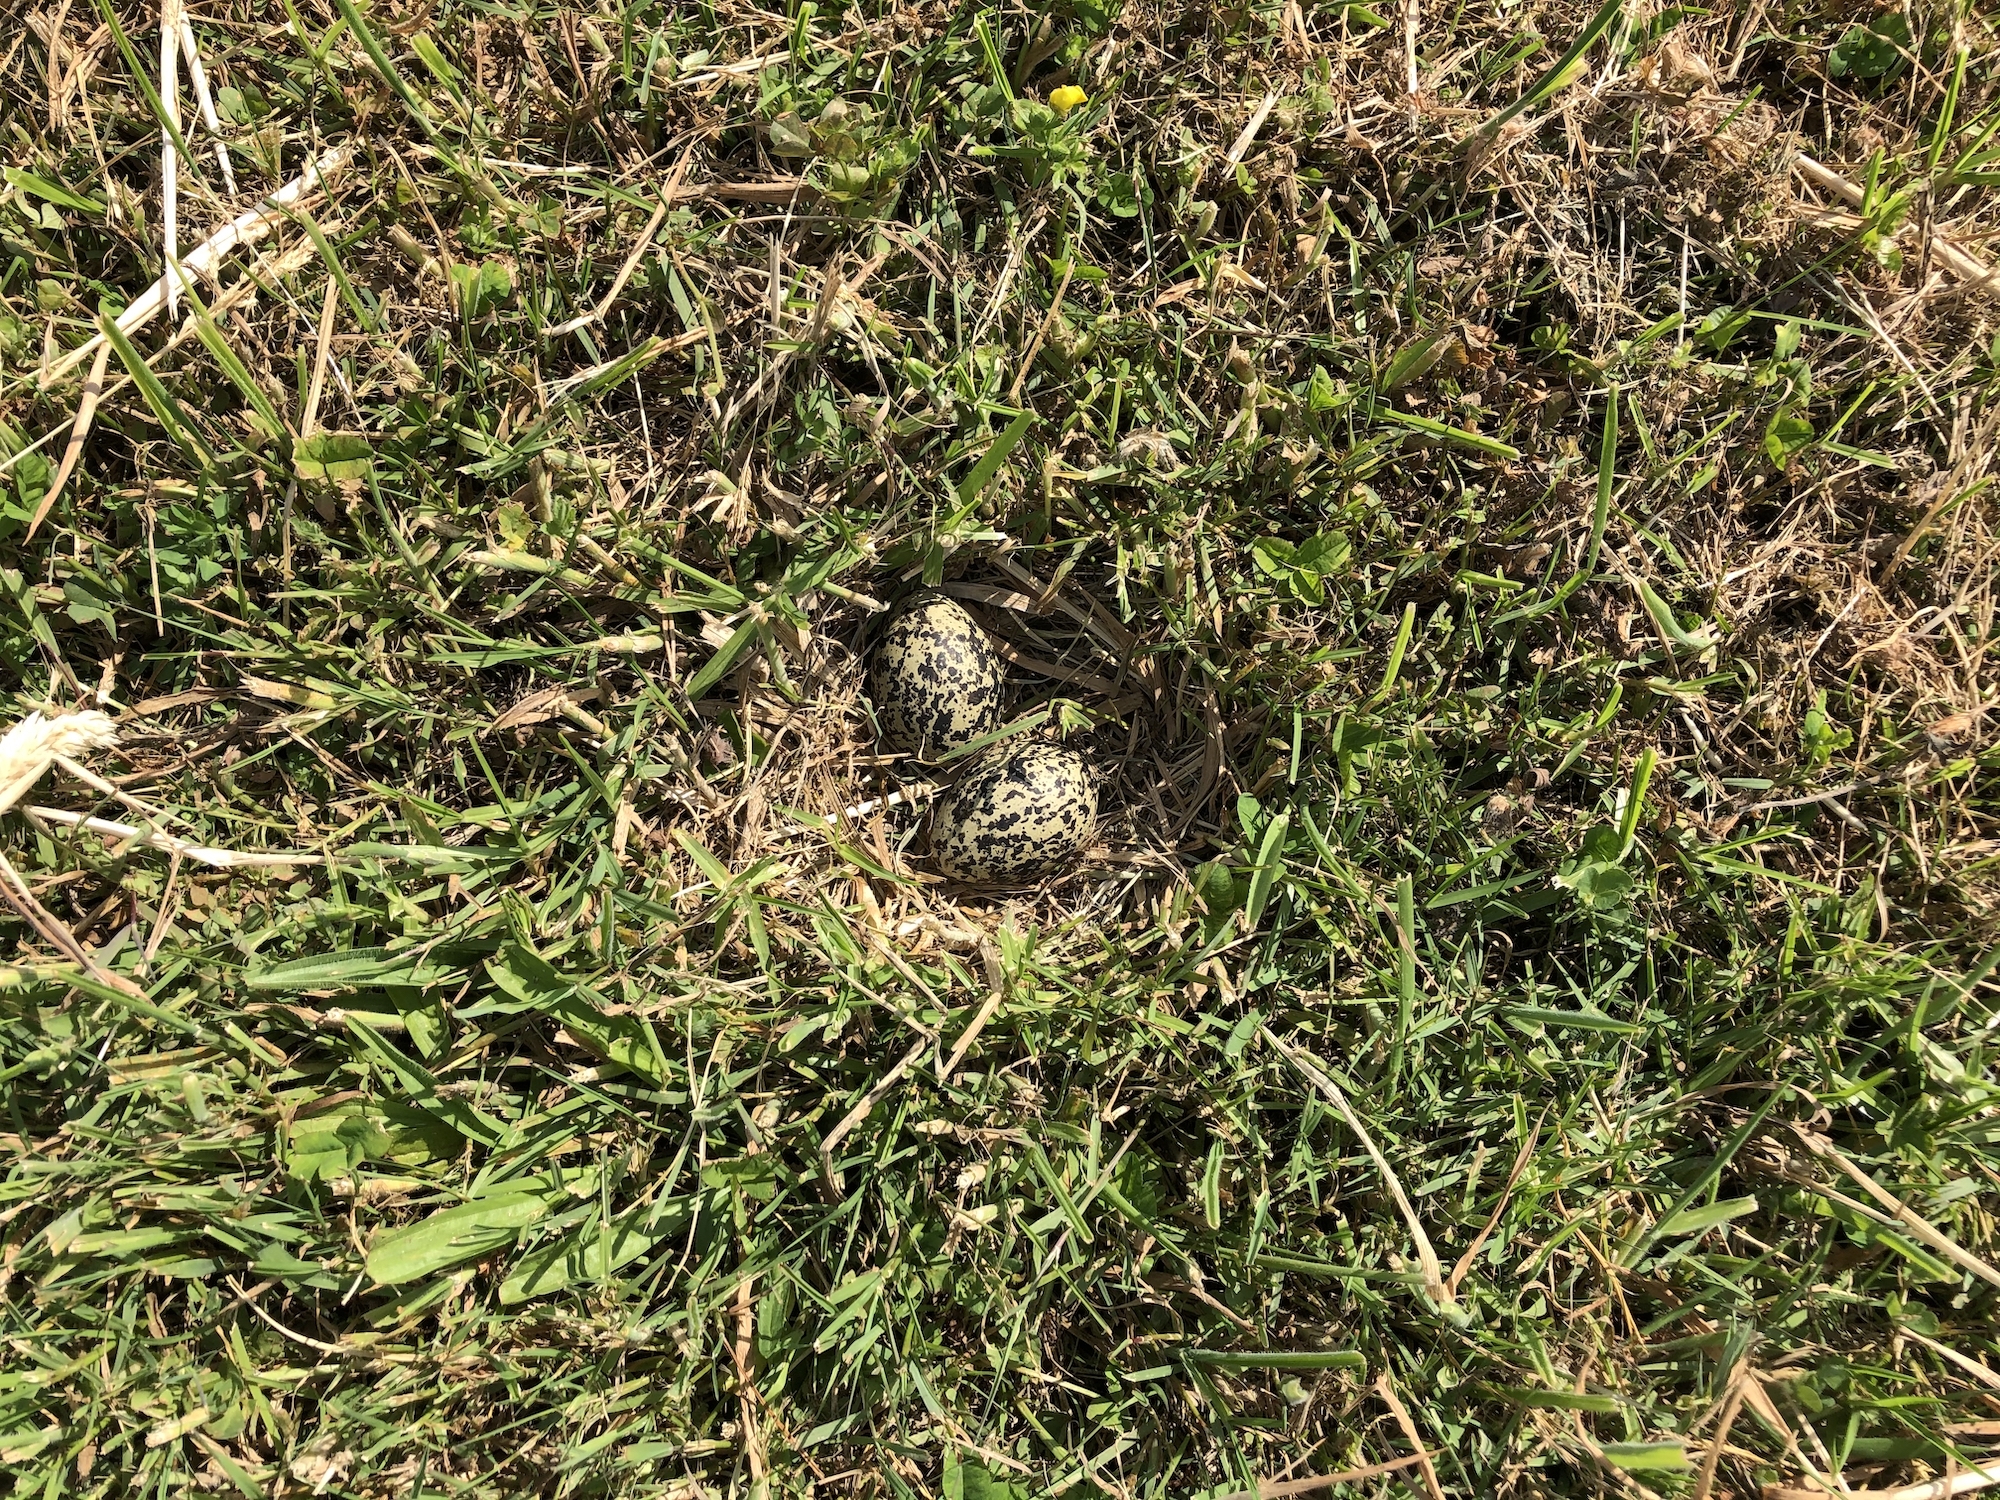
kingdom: Animalia
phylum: Chordata
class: Aves
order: Charadriiformes
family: Charadriidae
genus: Anarhynchus
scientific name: Anarhynchus
